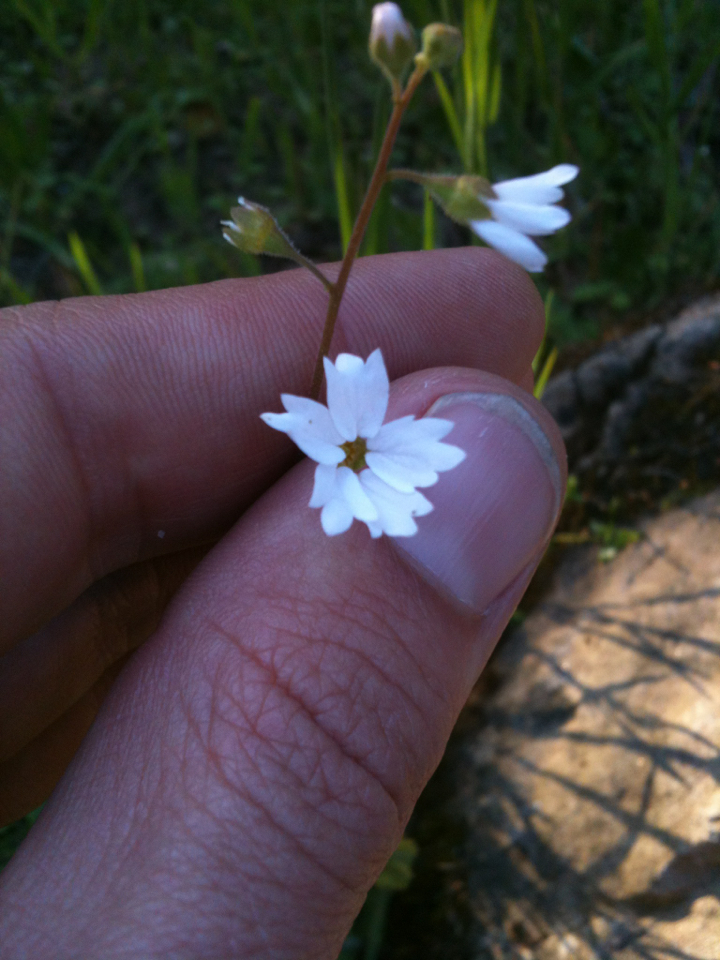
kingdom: Plantae
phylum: Tracheophyta
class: Magnoliopsida
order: Saxifragales
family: Saxifragaceae
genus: Lithophragma
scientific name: Lithophragma affine
